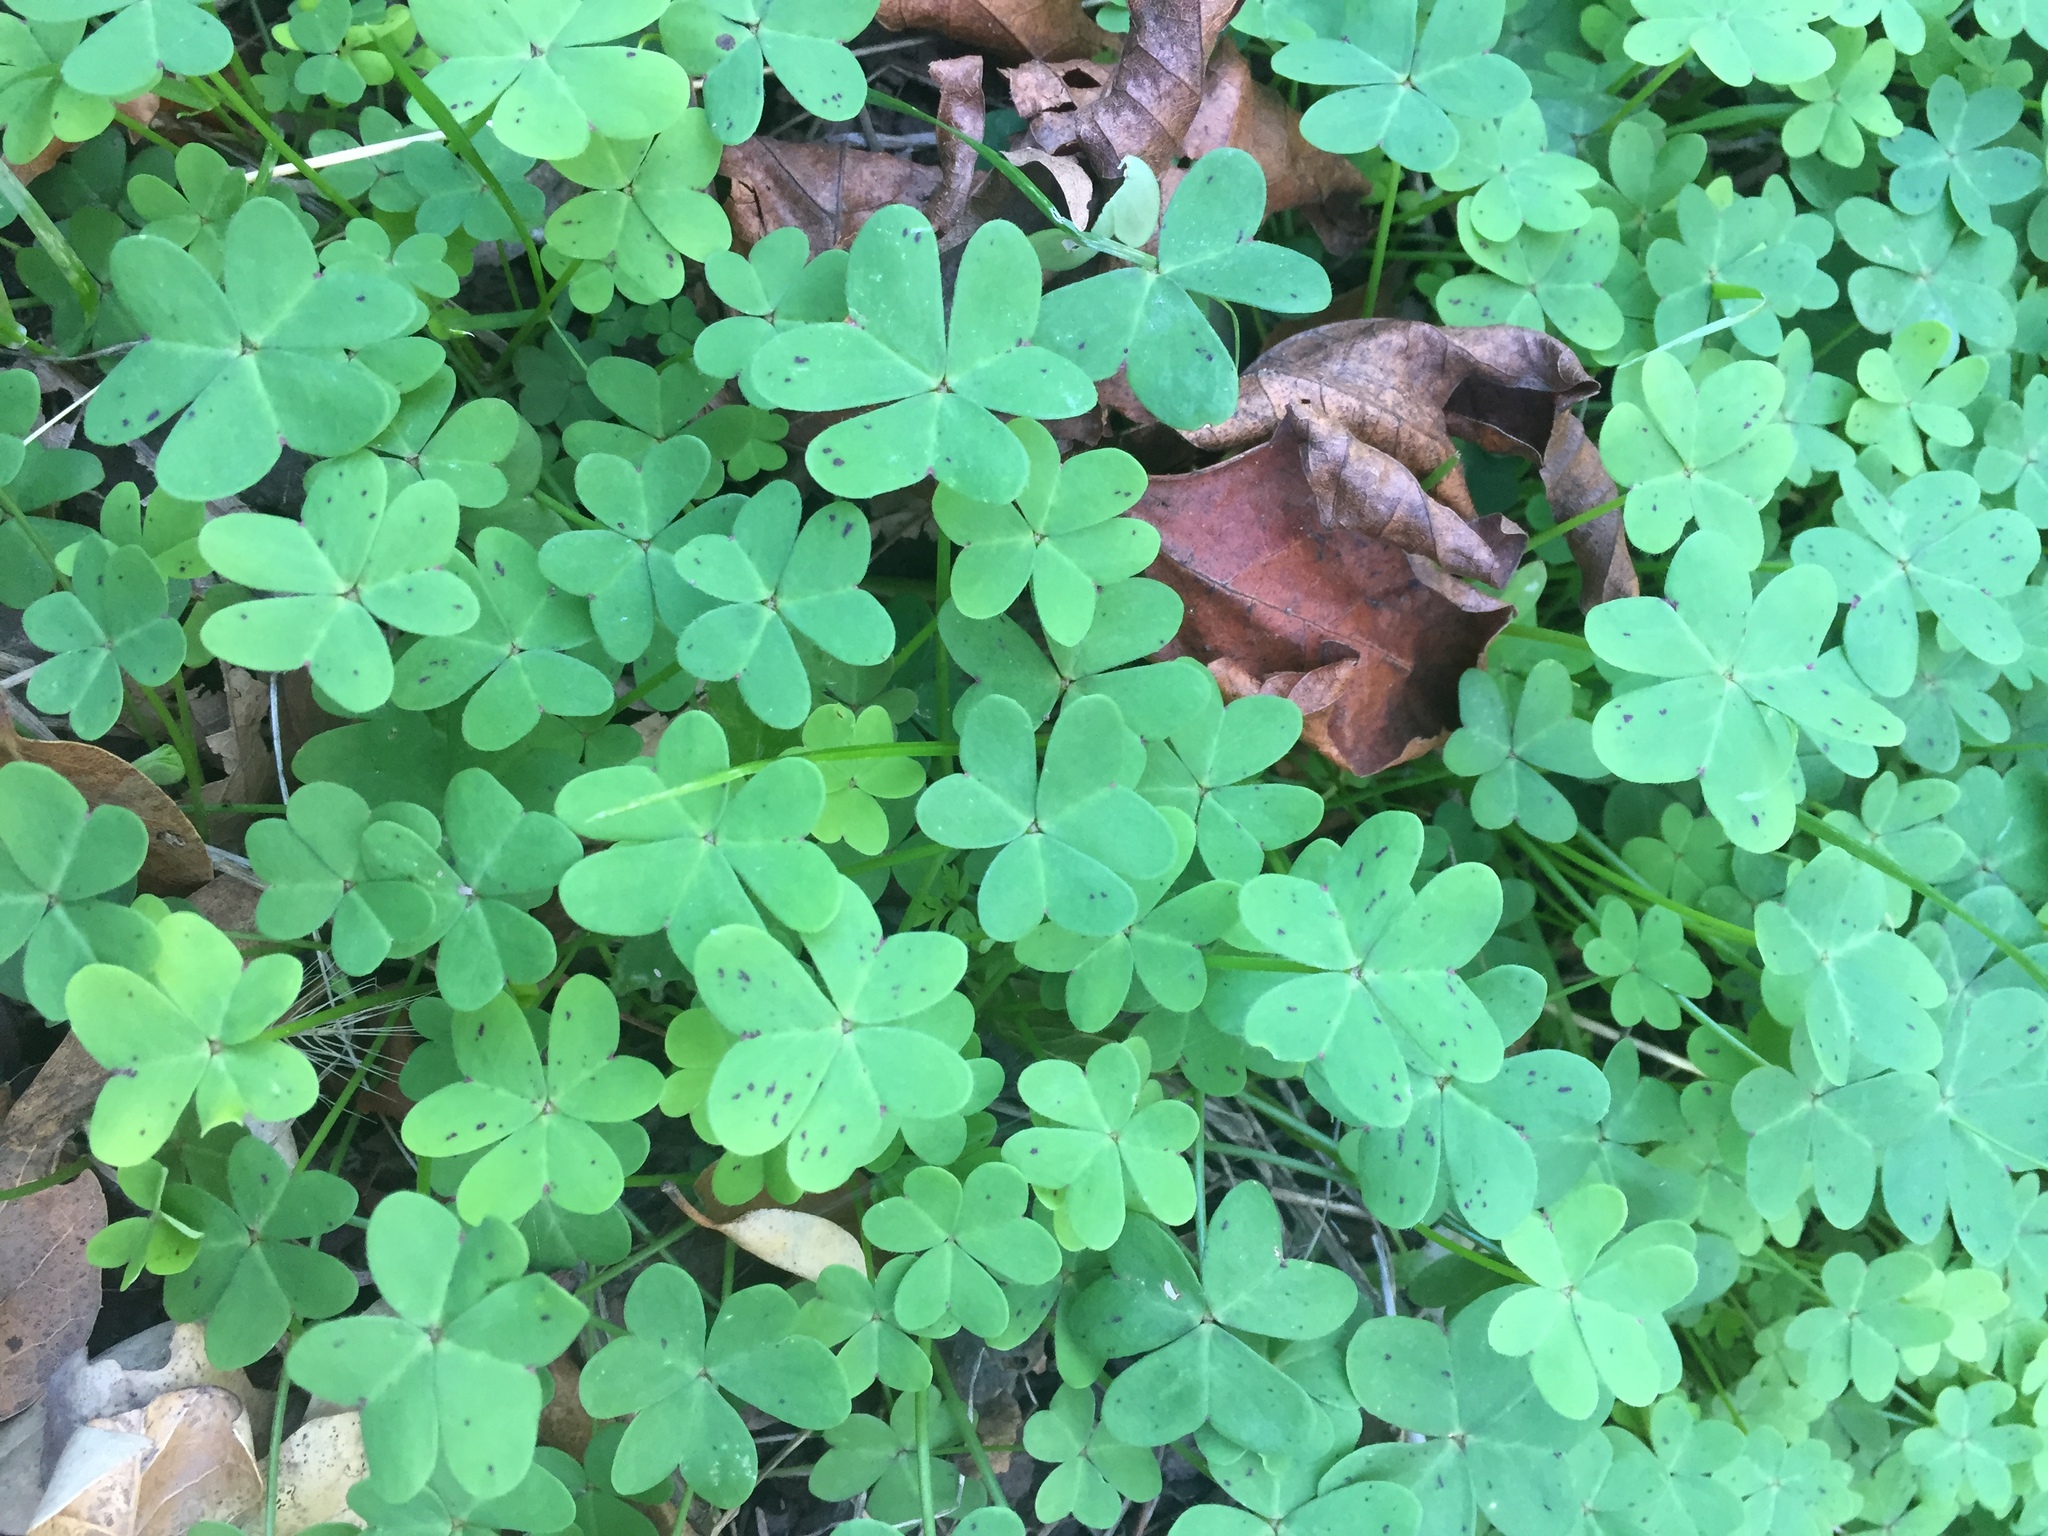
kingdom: Plantae
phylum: Tracheophyta
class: Magnoliopsida
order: Oxalidales
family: Oxalidaceae
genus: Oxalis
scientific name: Oxalis pes-caprae
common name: Bermuda-buttercup
